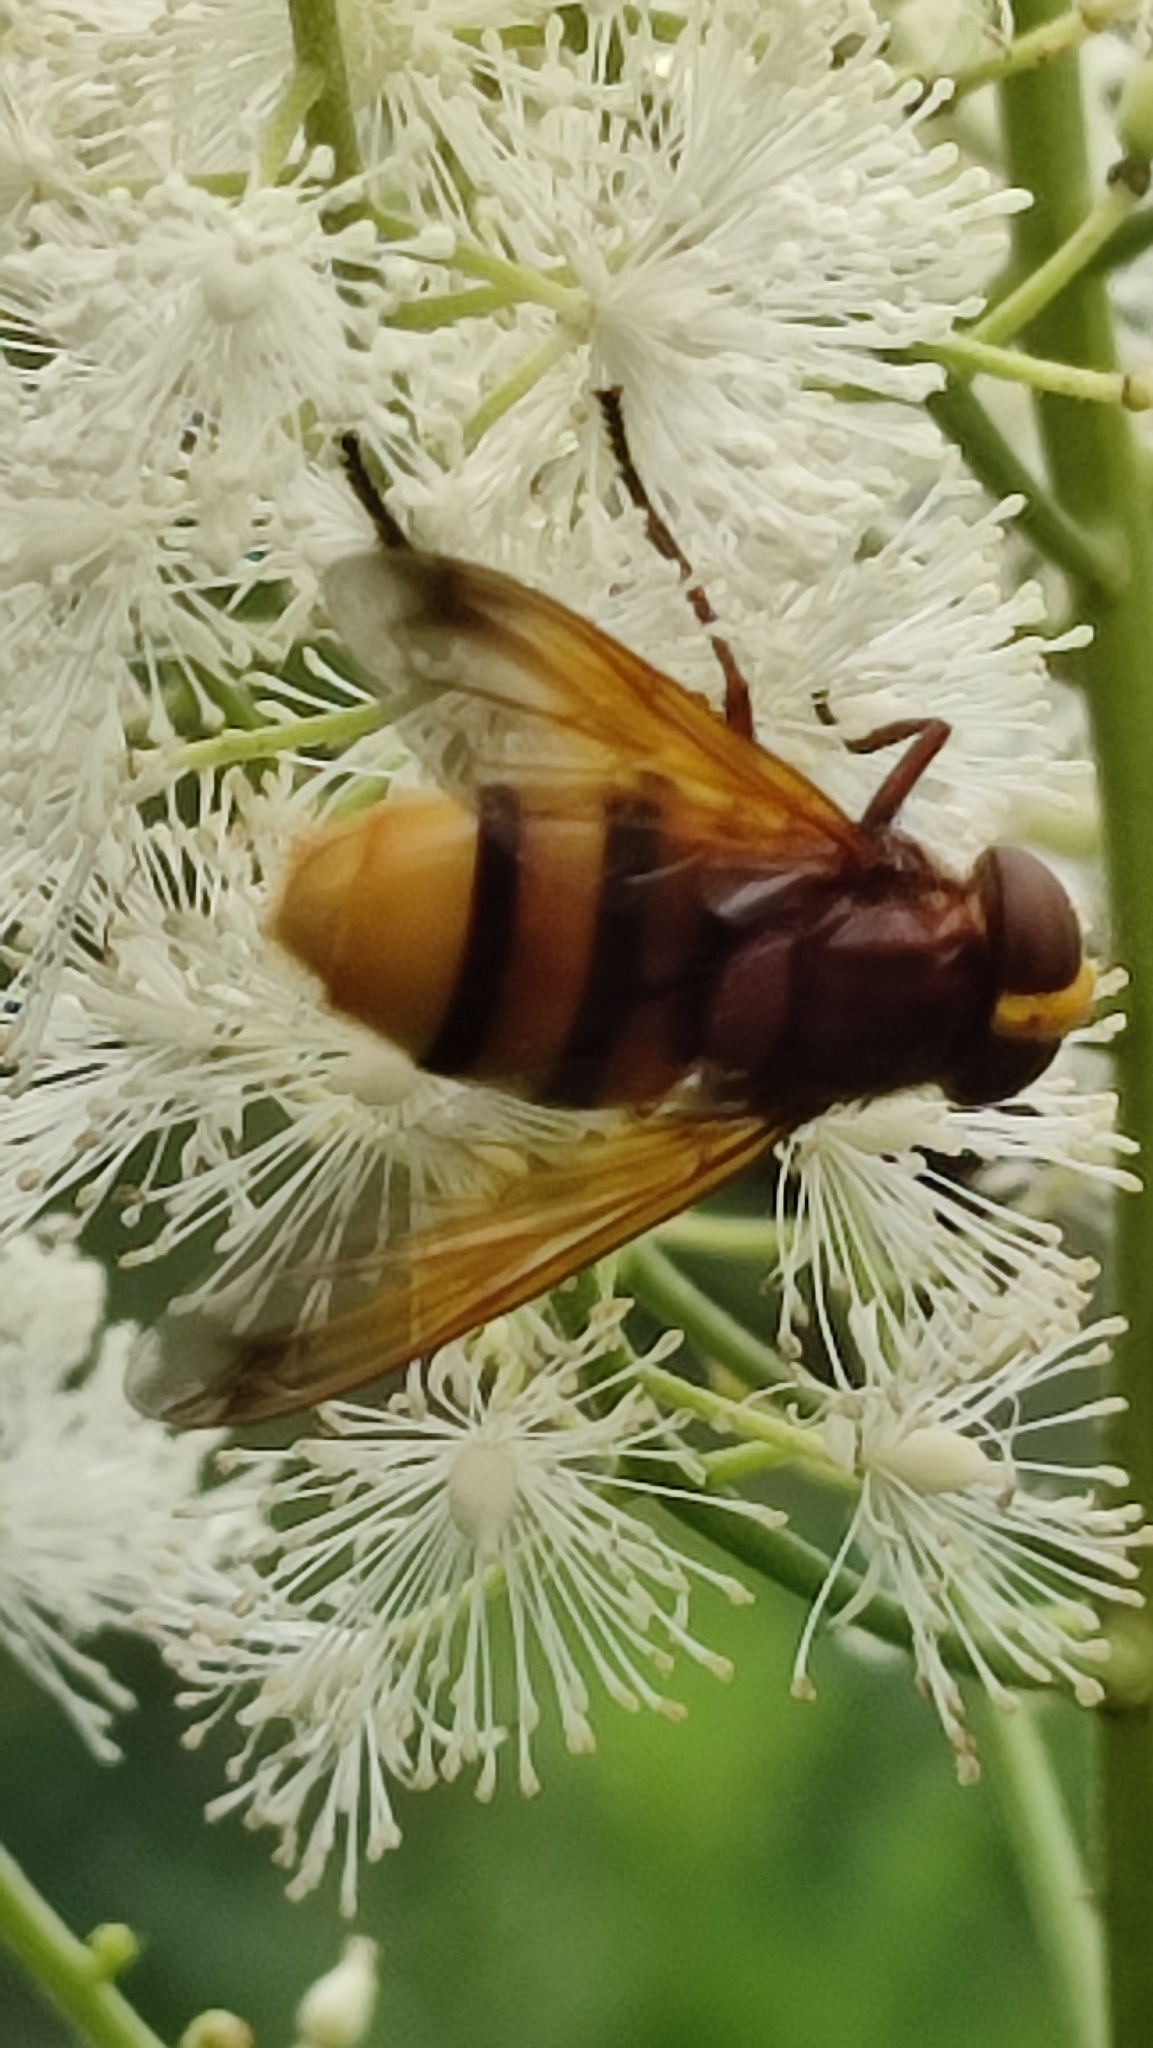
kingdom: Animalia
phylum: Arthropoda
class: Insecta
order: Diptera
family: Syrphidae
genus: Volucella
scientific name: Volucella zonaria
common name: Hornet hoverfly
